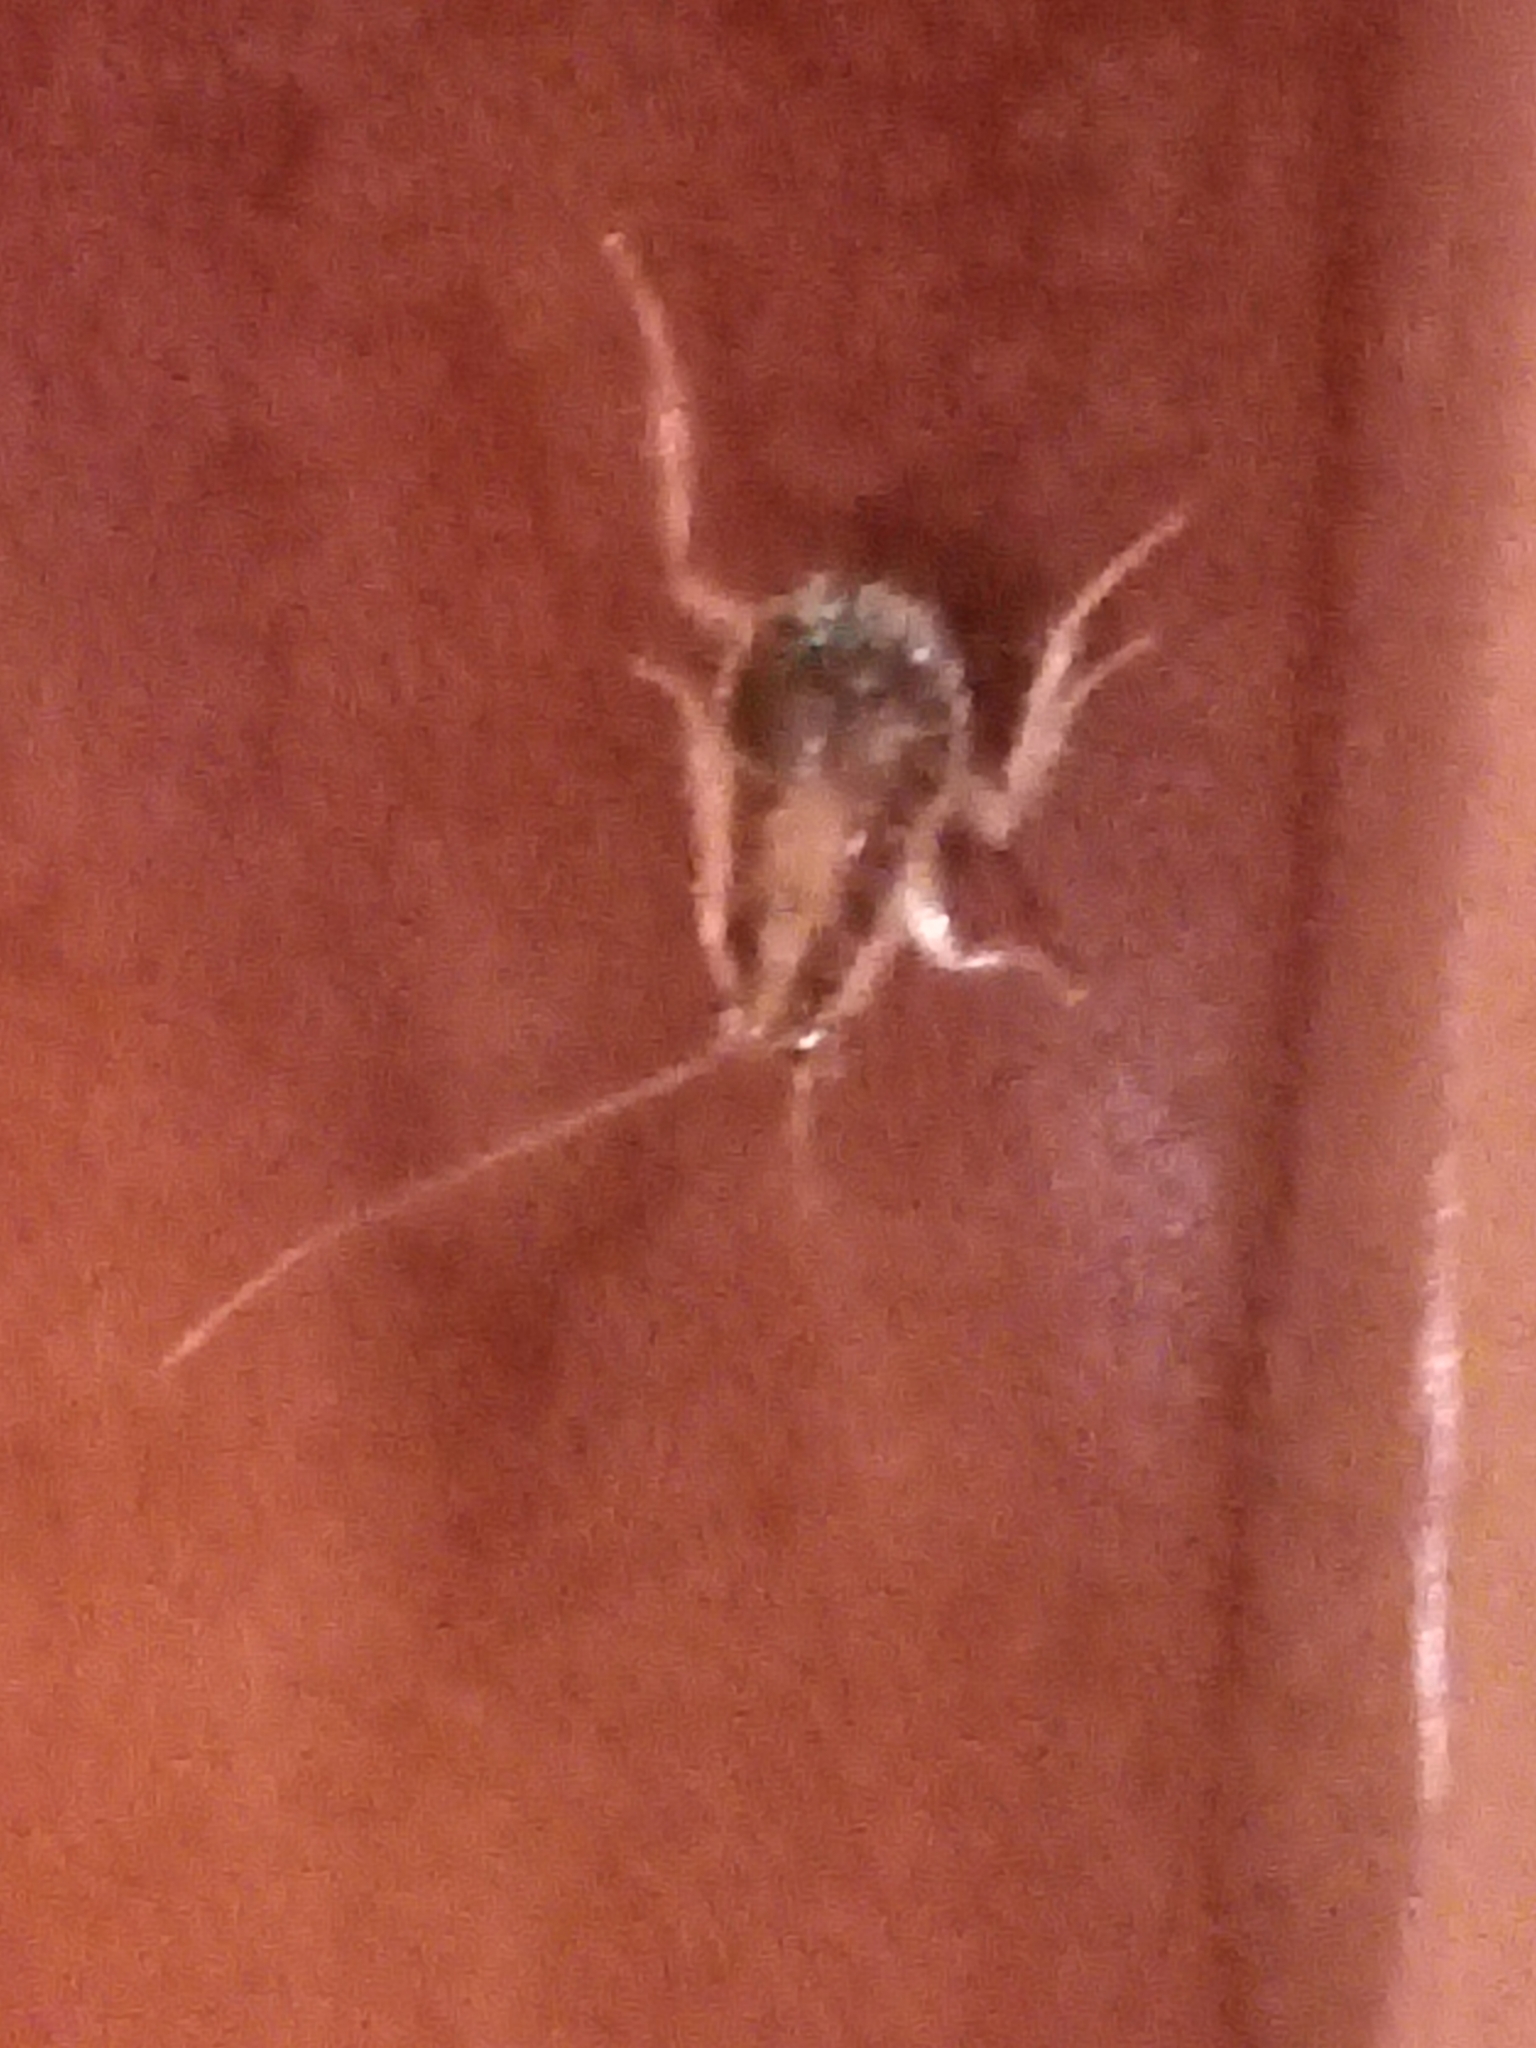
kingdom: Animalia
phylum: Arthropoda
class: Insecta
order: Blattodea
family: Ectobiidae
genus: Blattella
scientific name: Blattella germanica
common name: German cockroach
